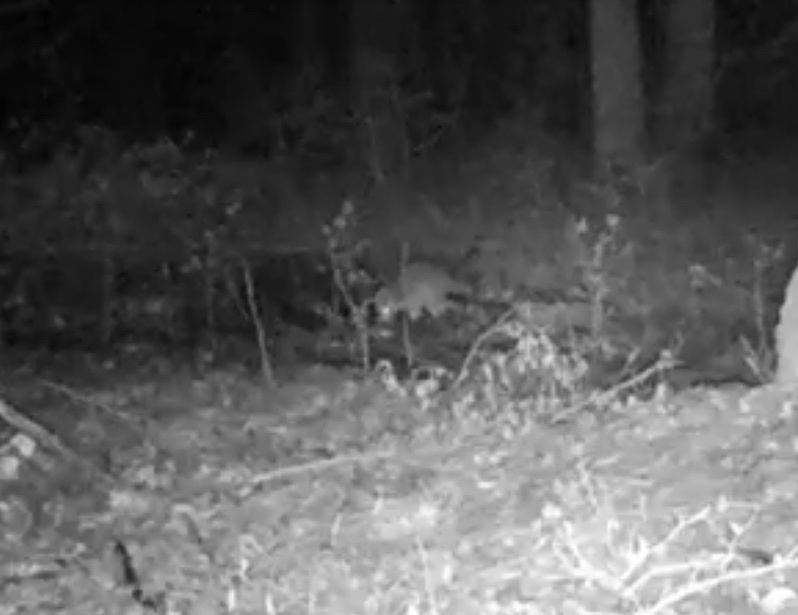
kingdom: Animalia
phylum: Chordata
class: Mammalia
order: Carnivora
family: Procyonidae
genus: Procyon
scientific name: Procyon lotor
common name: Raccoon
